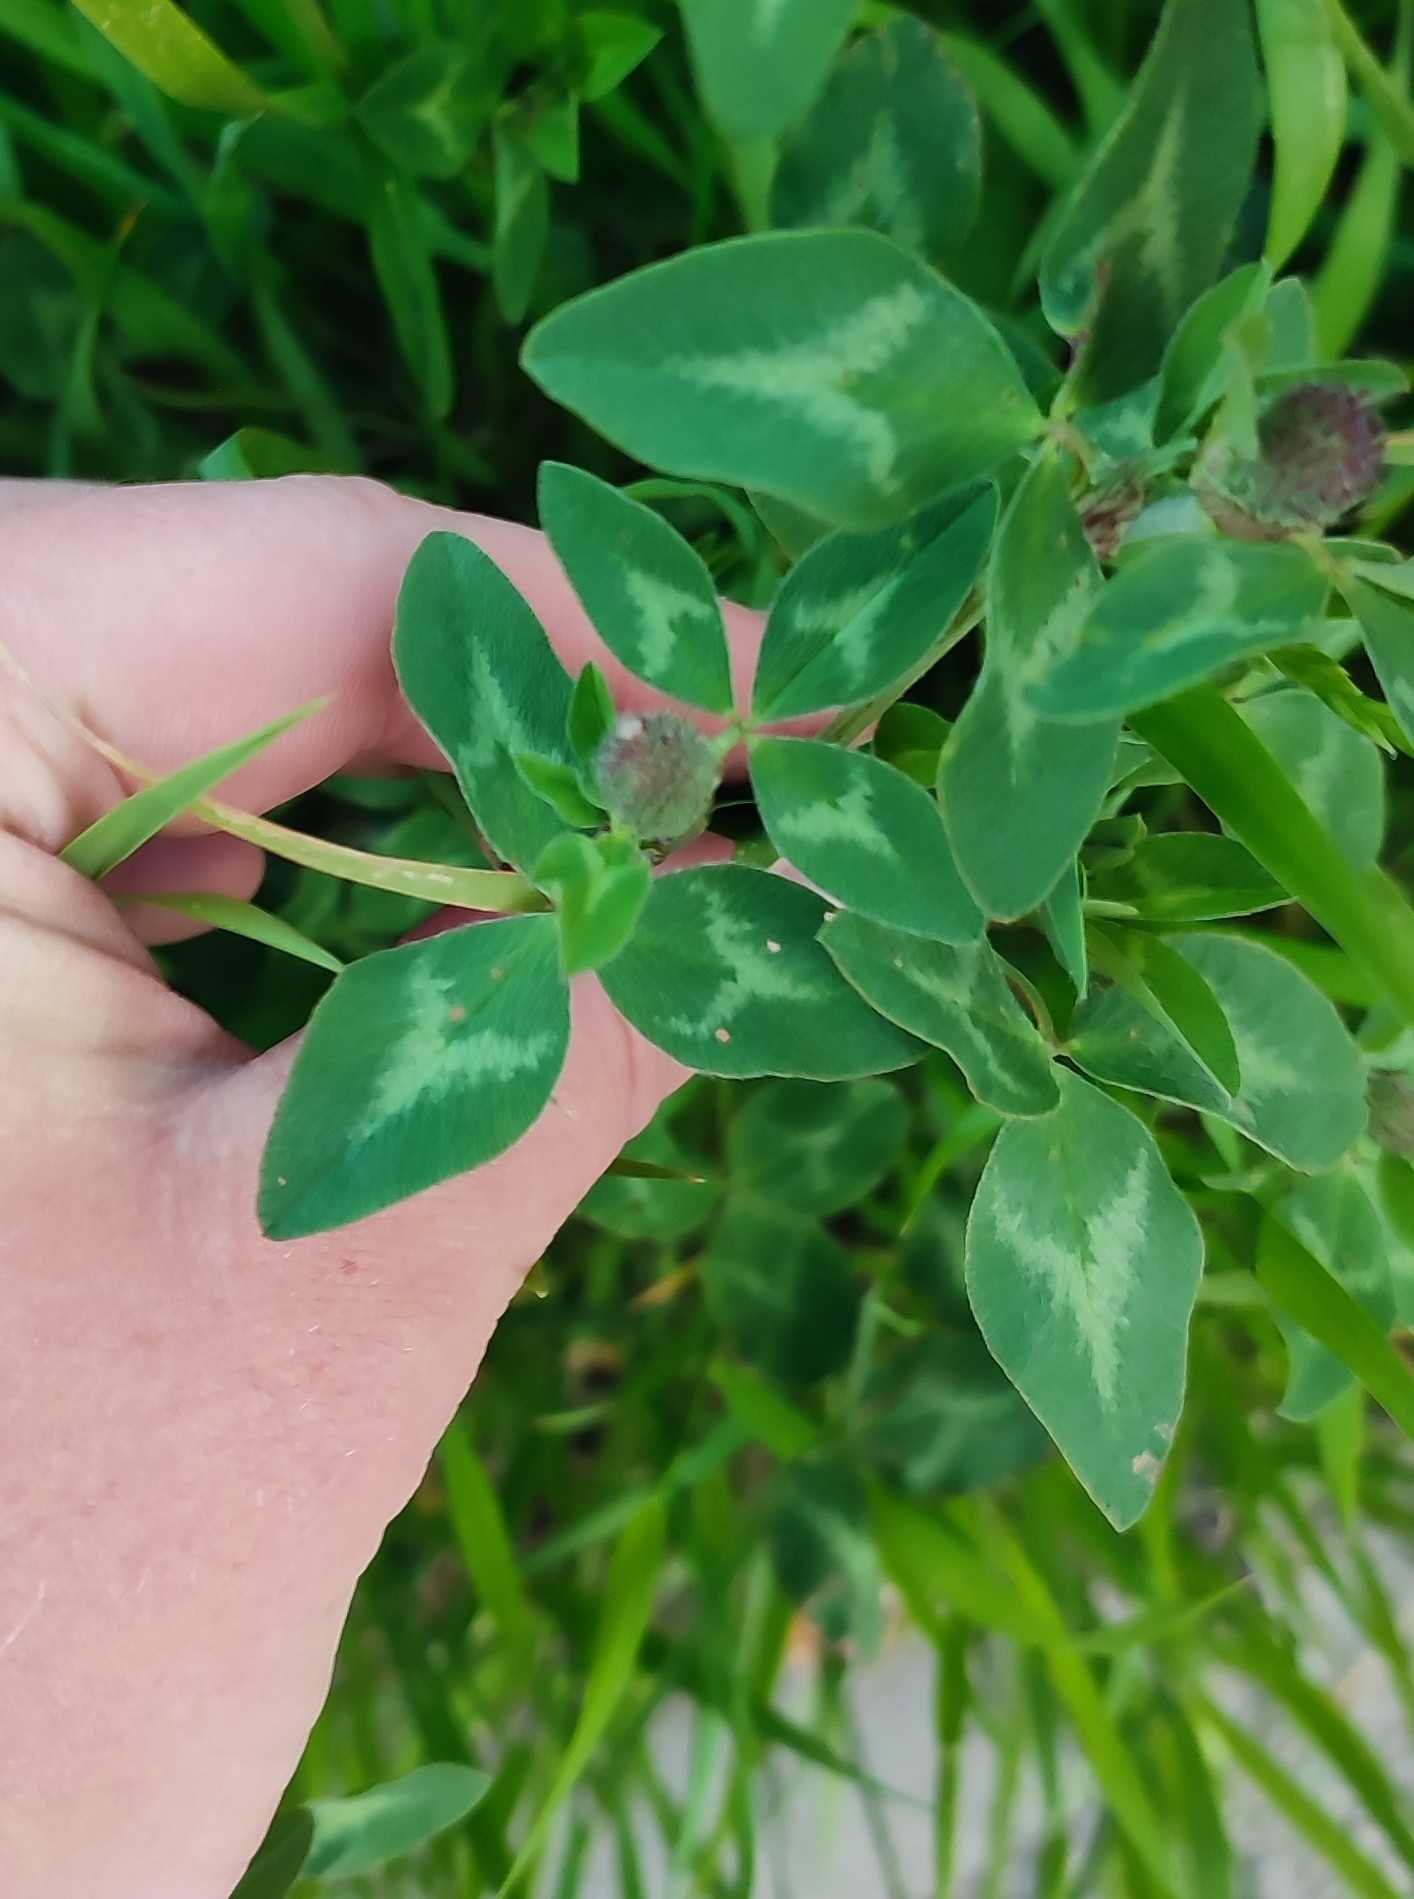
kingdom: Plantae
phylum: Tracheophyta
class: Magnoliopsida
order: Fabales
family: Fabaceae
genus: Trifolium
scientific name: Trifolium pratense
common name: Red clover
